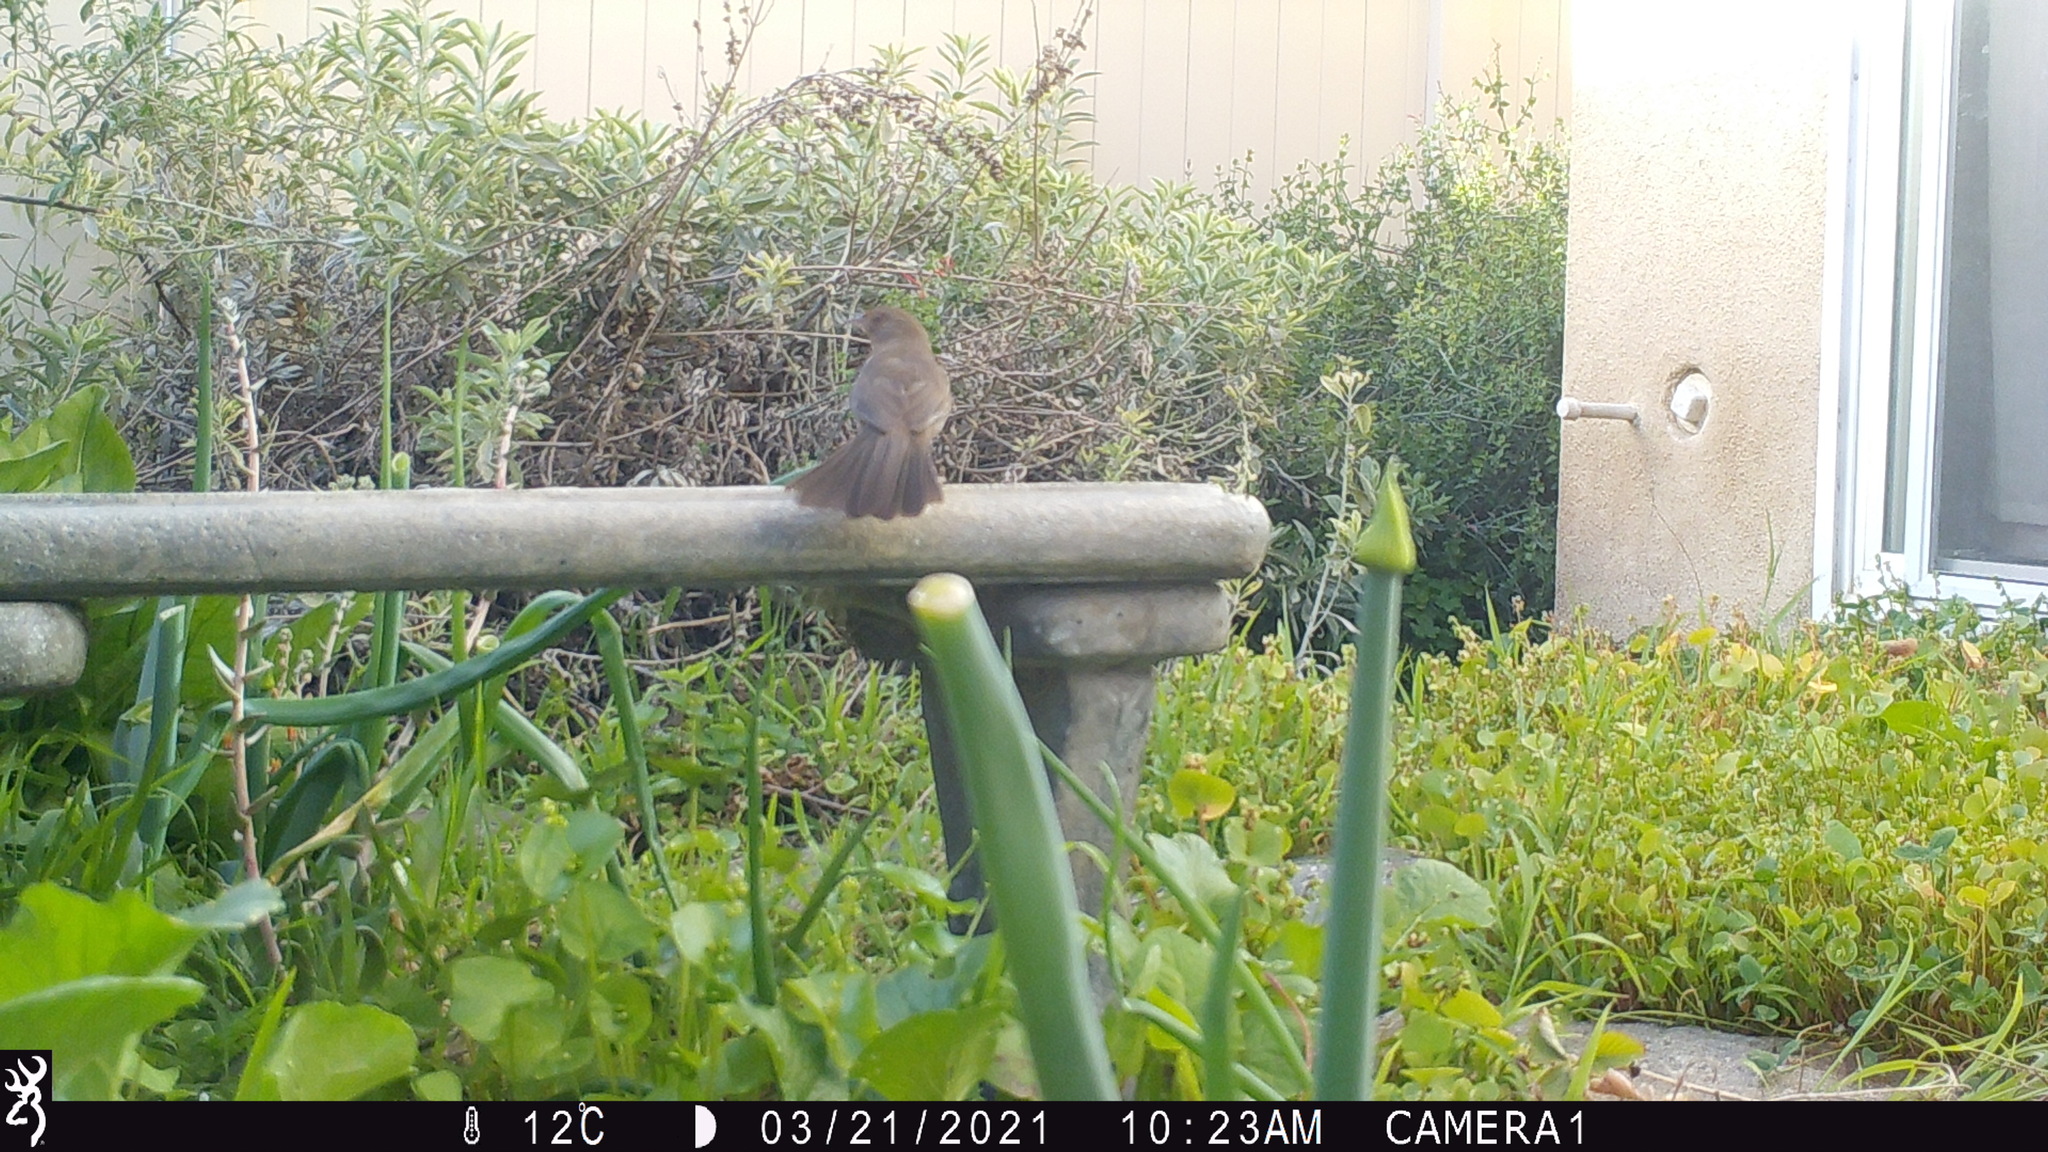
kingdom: Animalia
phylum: Chordata
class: Aves
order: Passeriformes
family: Passerellidae
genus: Melozone
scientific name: Melozone crissalis
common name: California towhee
